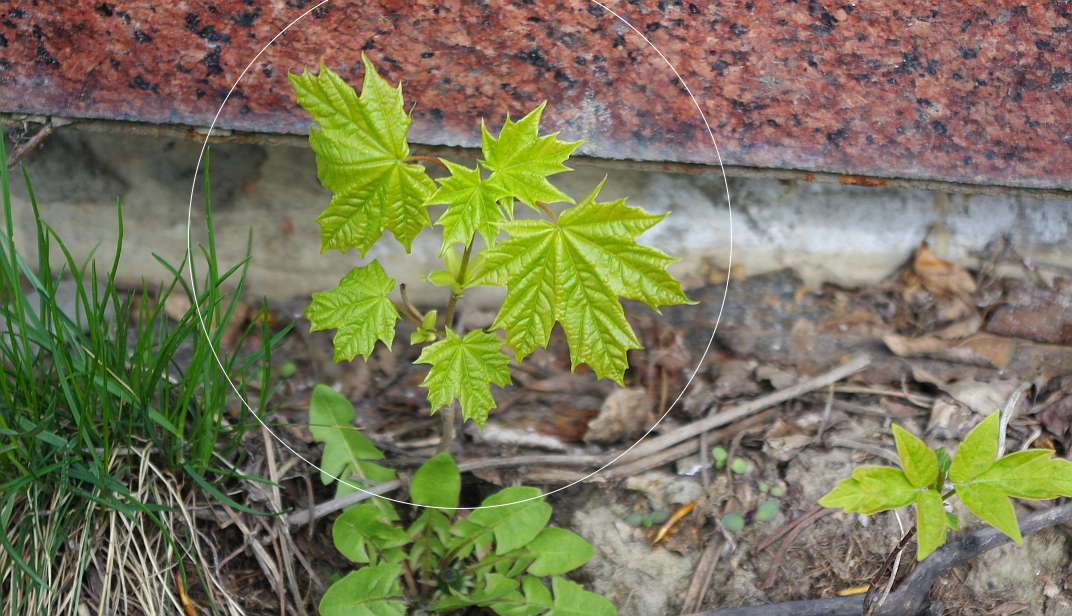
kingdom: Plantae
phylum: Tracheophyta
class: Magnoliopsida
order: Sapindales
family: Sapindaceae
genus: Acer
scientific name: Acer platanoides
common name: Norway maple
